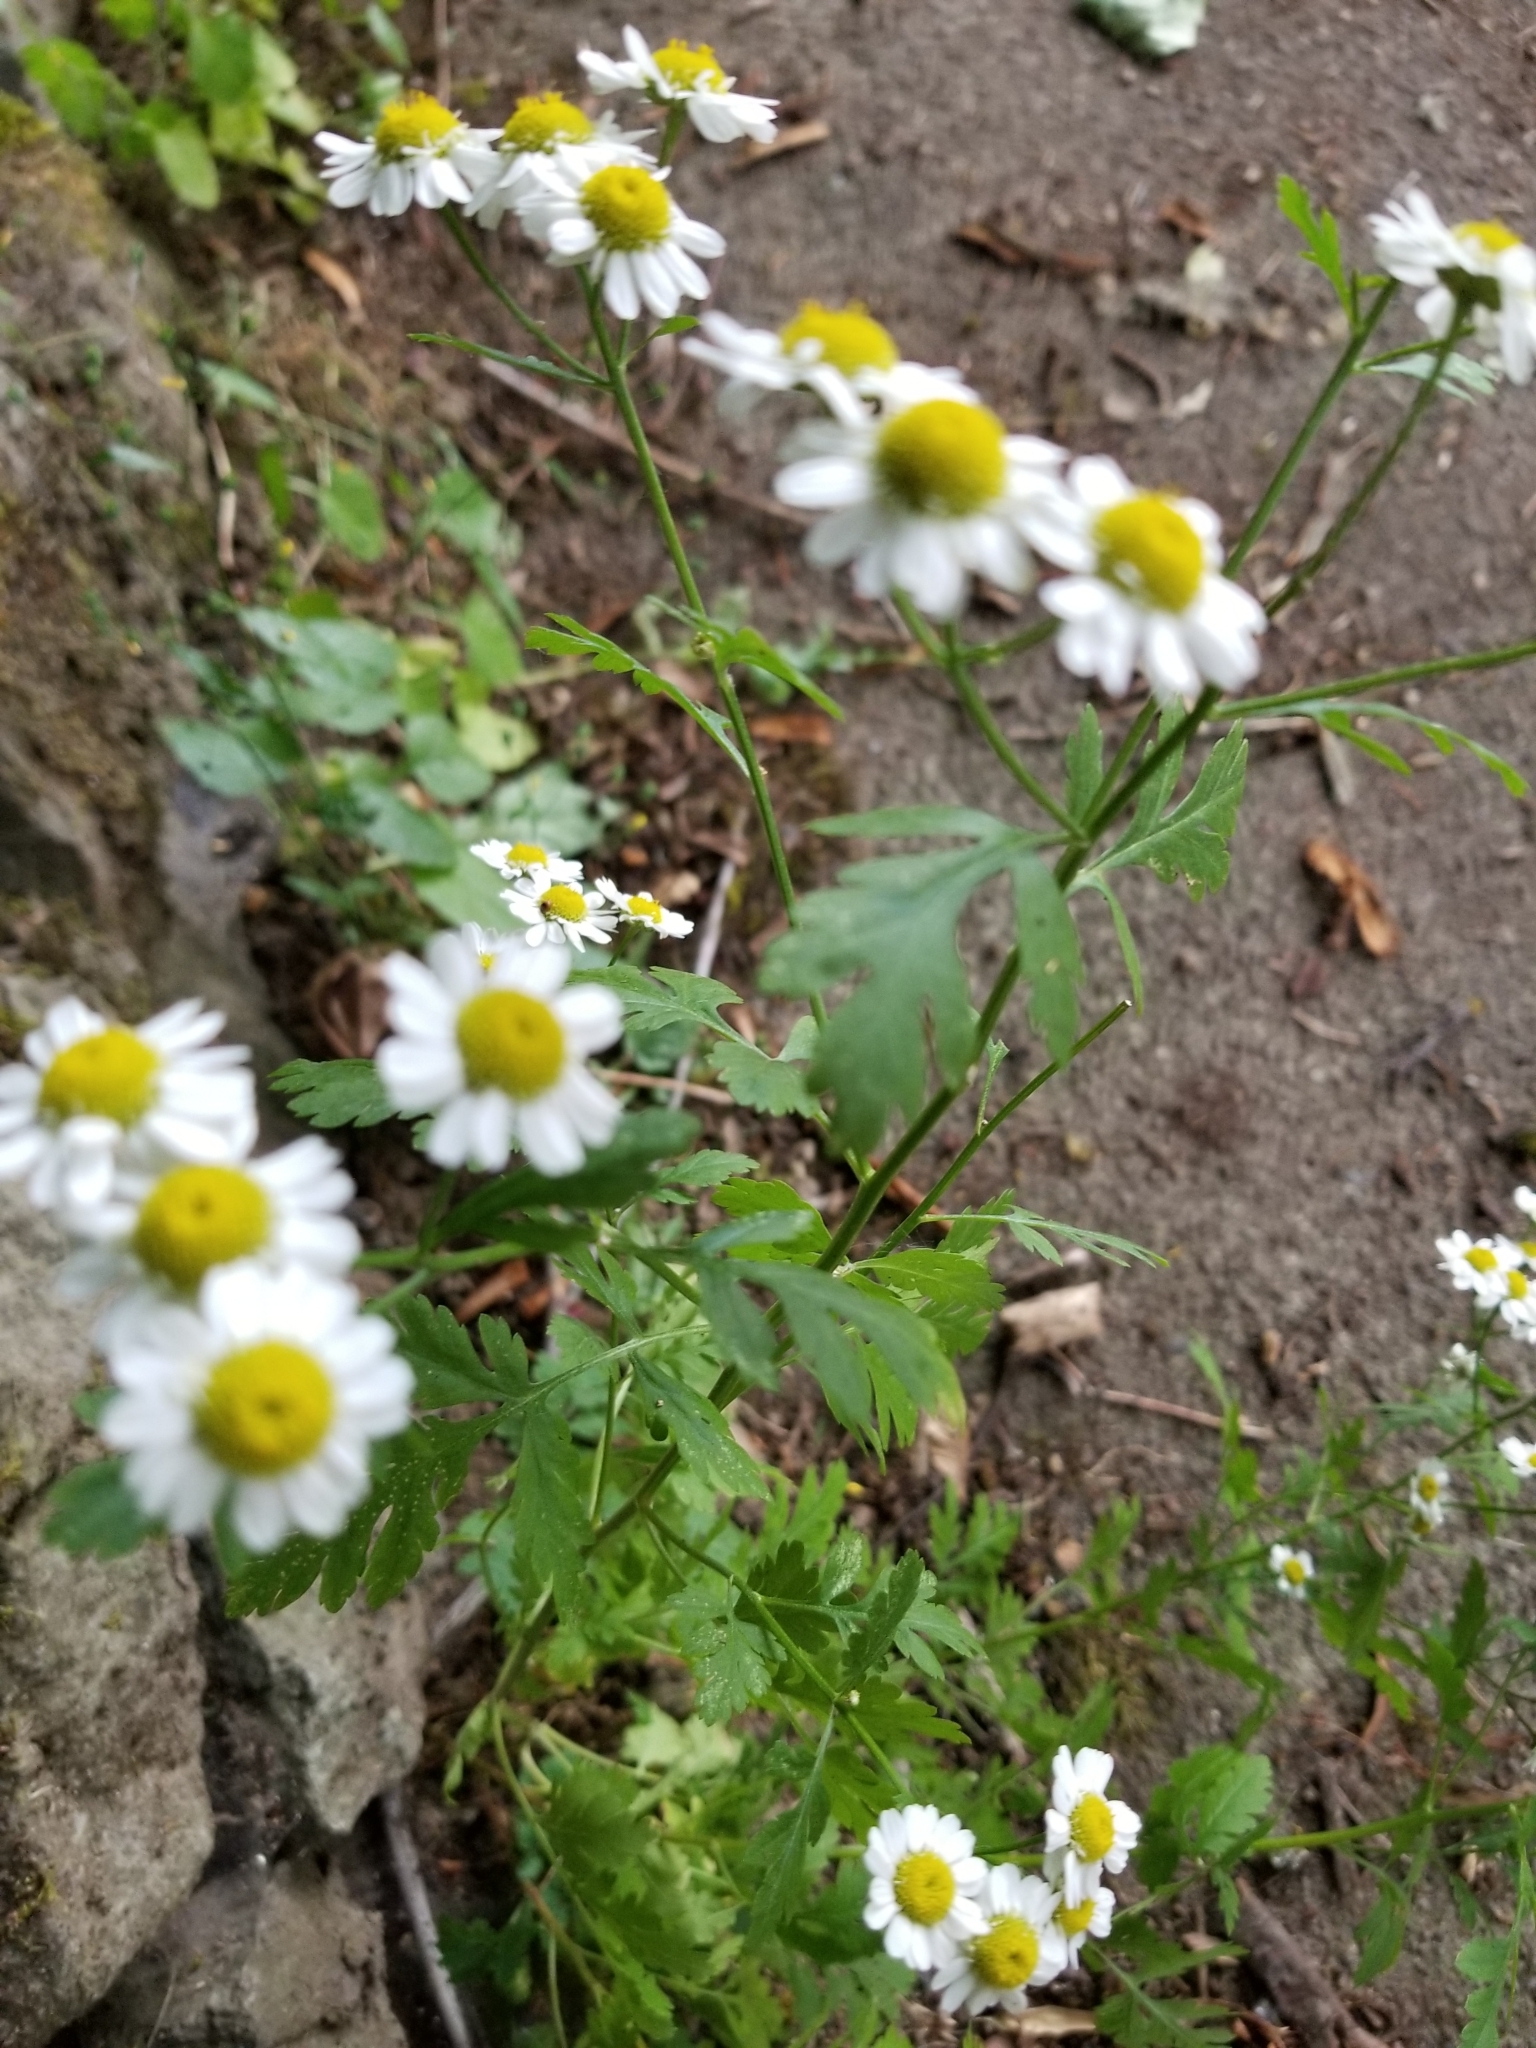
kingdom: Plantae
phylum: Tracheophyta
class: Magnoliopsida
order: Asterales
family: Asteraceae
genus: Tanacetum
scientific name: Tanacetum parthenium
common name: Feverfew
